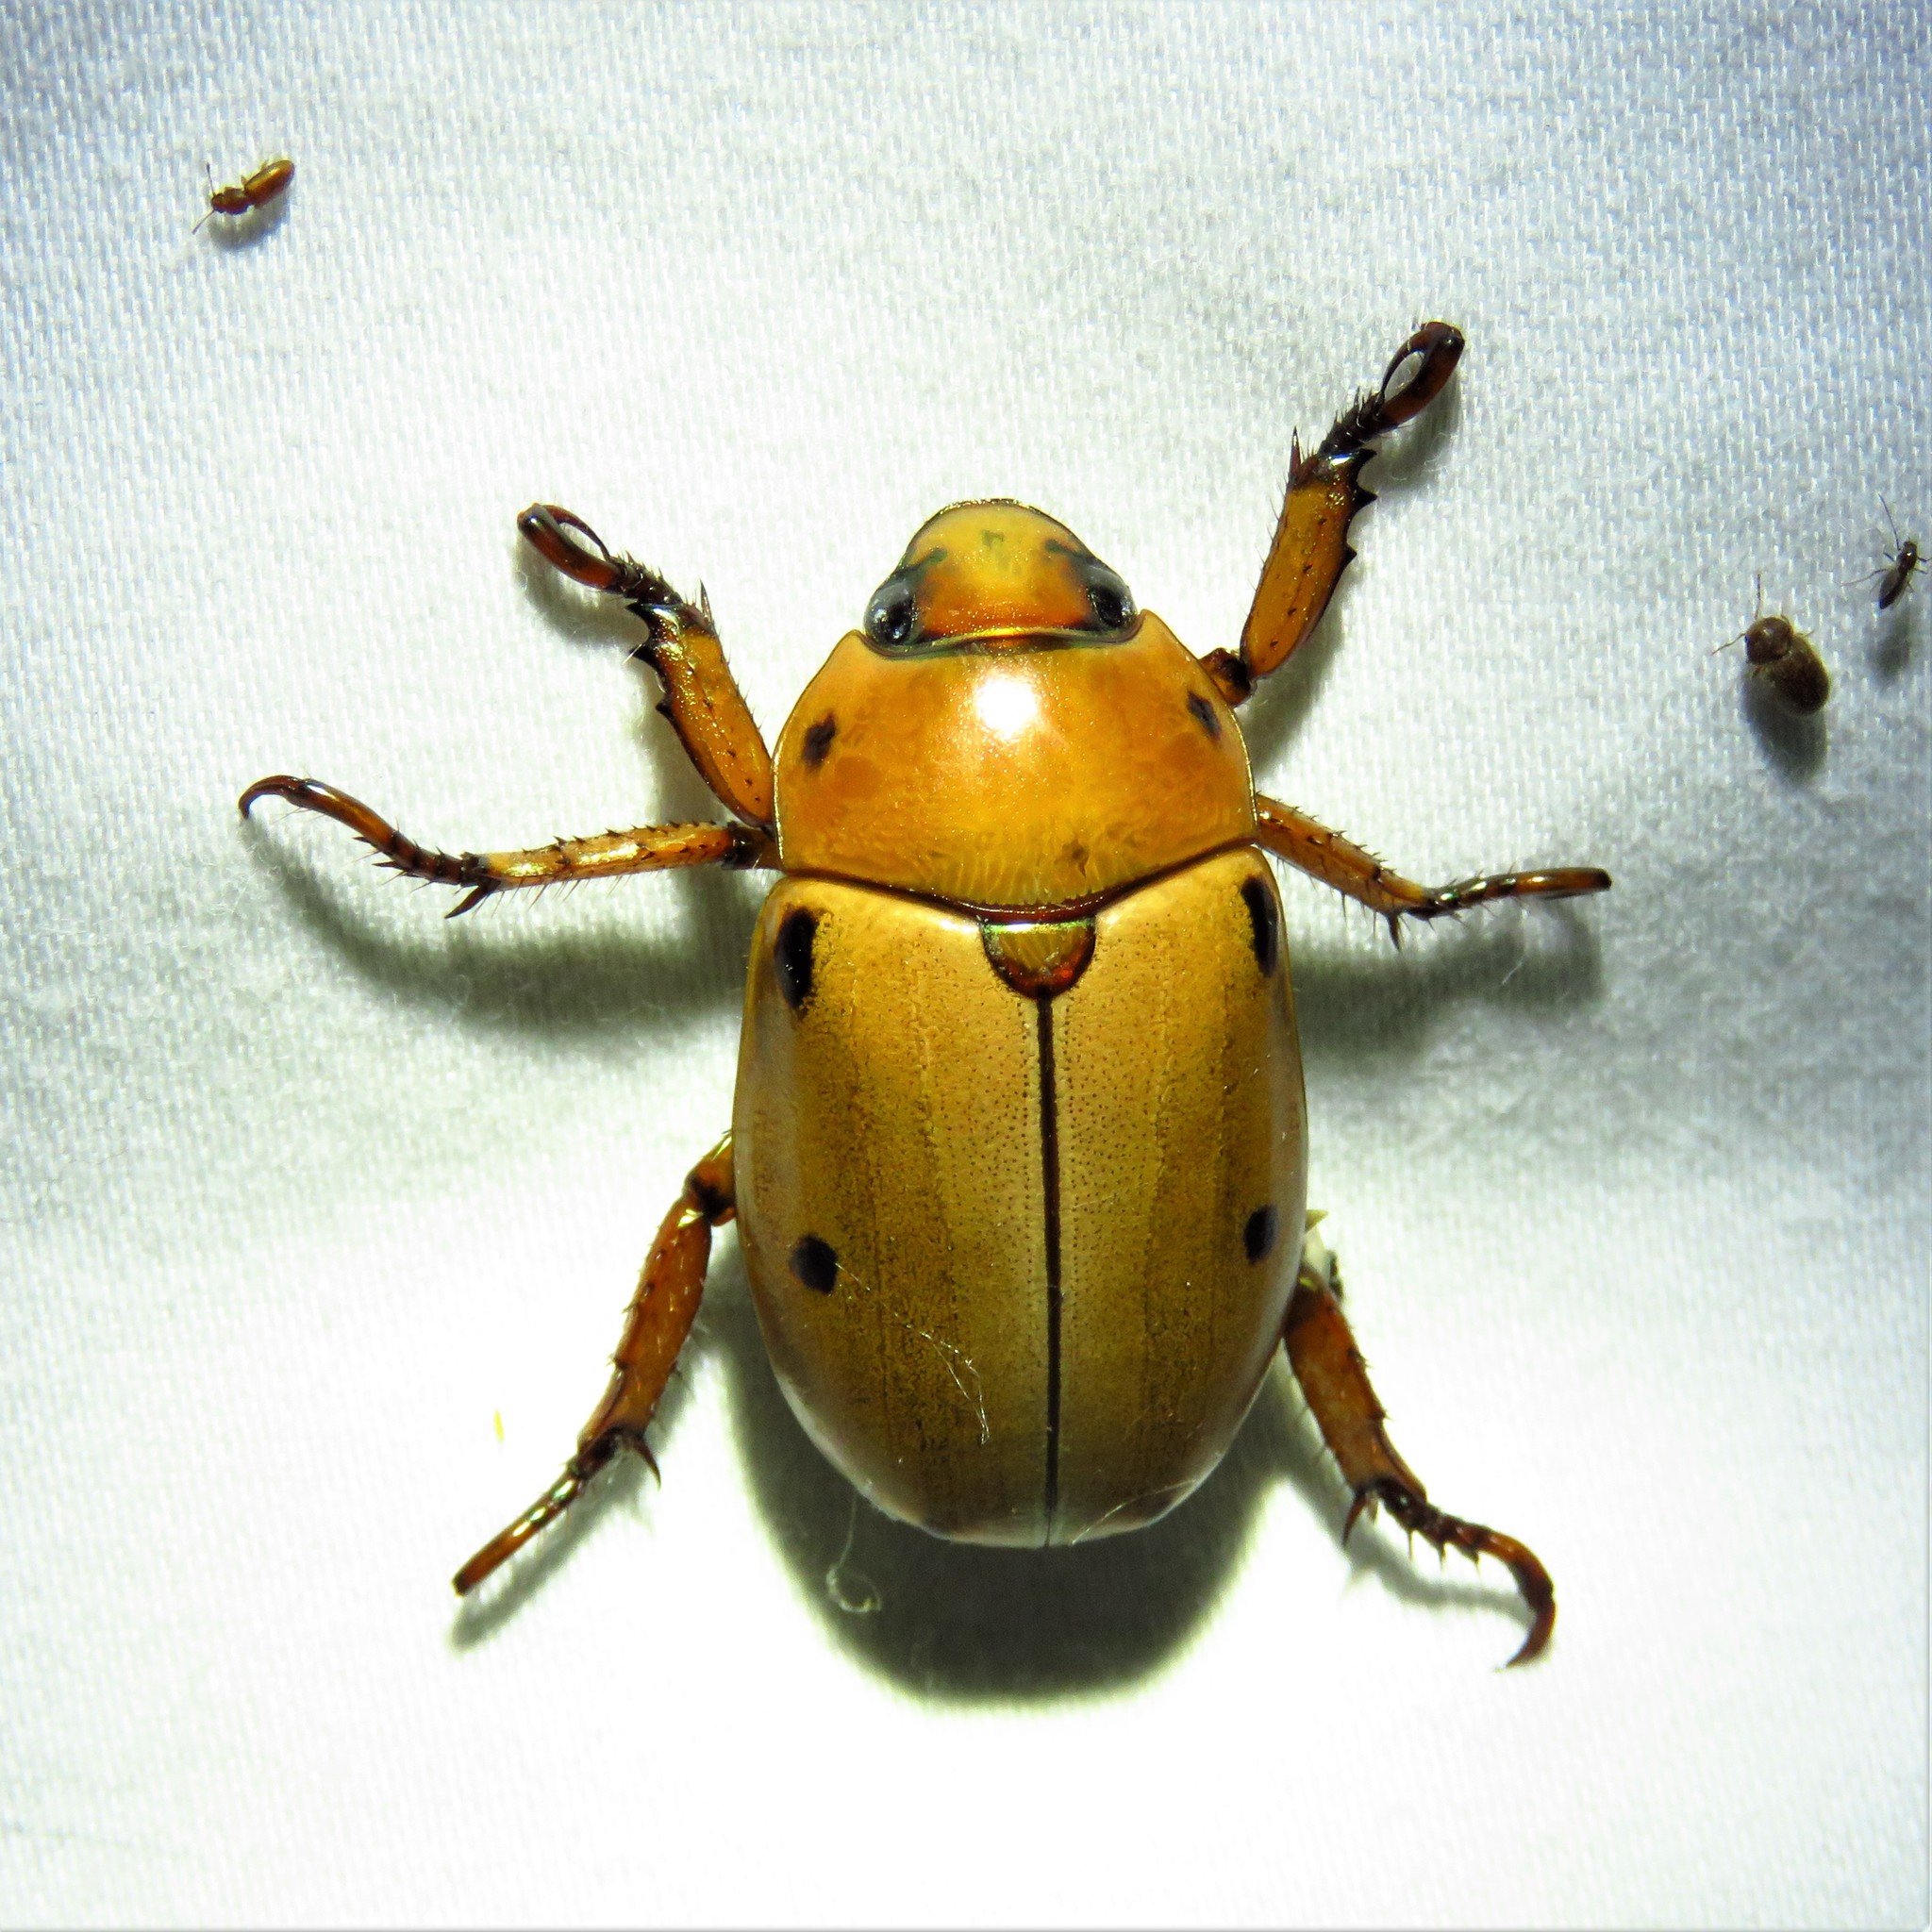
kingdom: Animalia
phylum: Arthropoda
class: Insecta
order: Coleoptera
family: Scarabaeidae
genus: Pelidnota
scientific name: Pelidnota punctata
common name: Grapevine beetle
